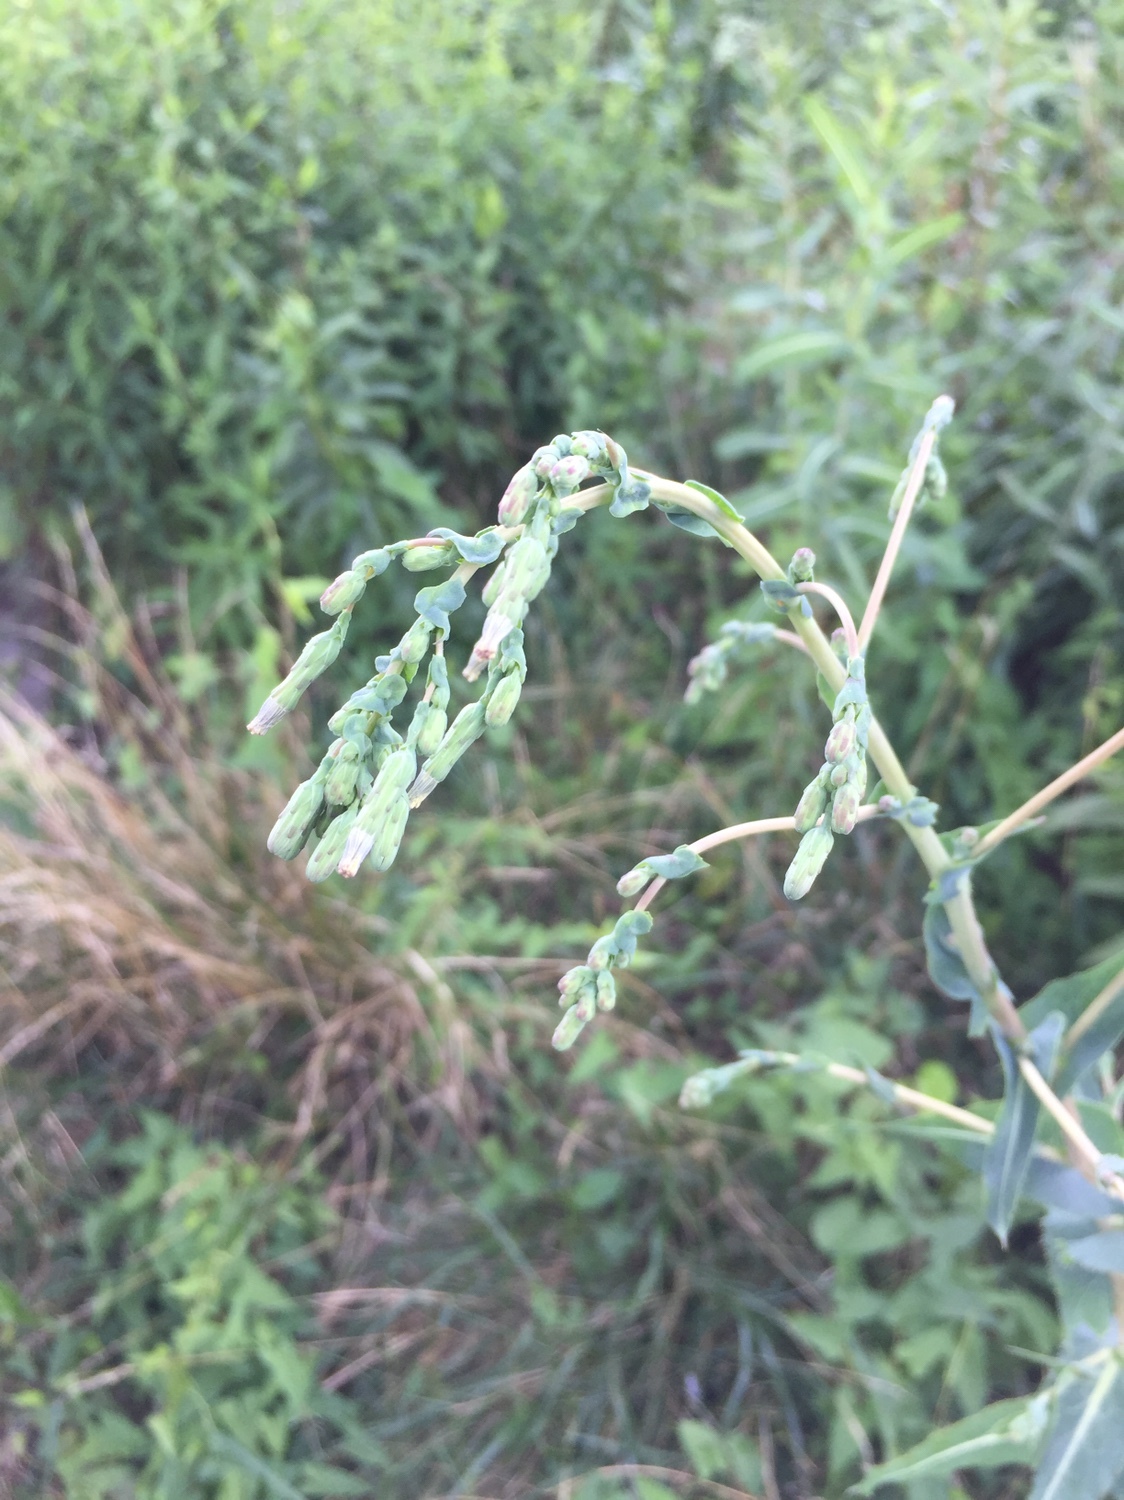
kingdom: Plantae
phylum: Tracheophyta
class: Magnoliopsida
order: Asterales
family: Asteraceae
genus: Lactuca
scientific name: Lactuca serriola
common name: Prickly lettuce
